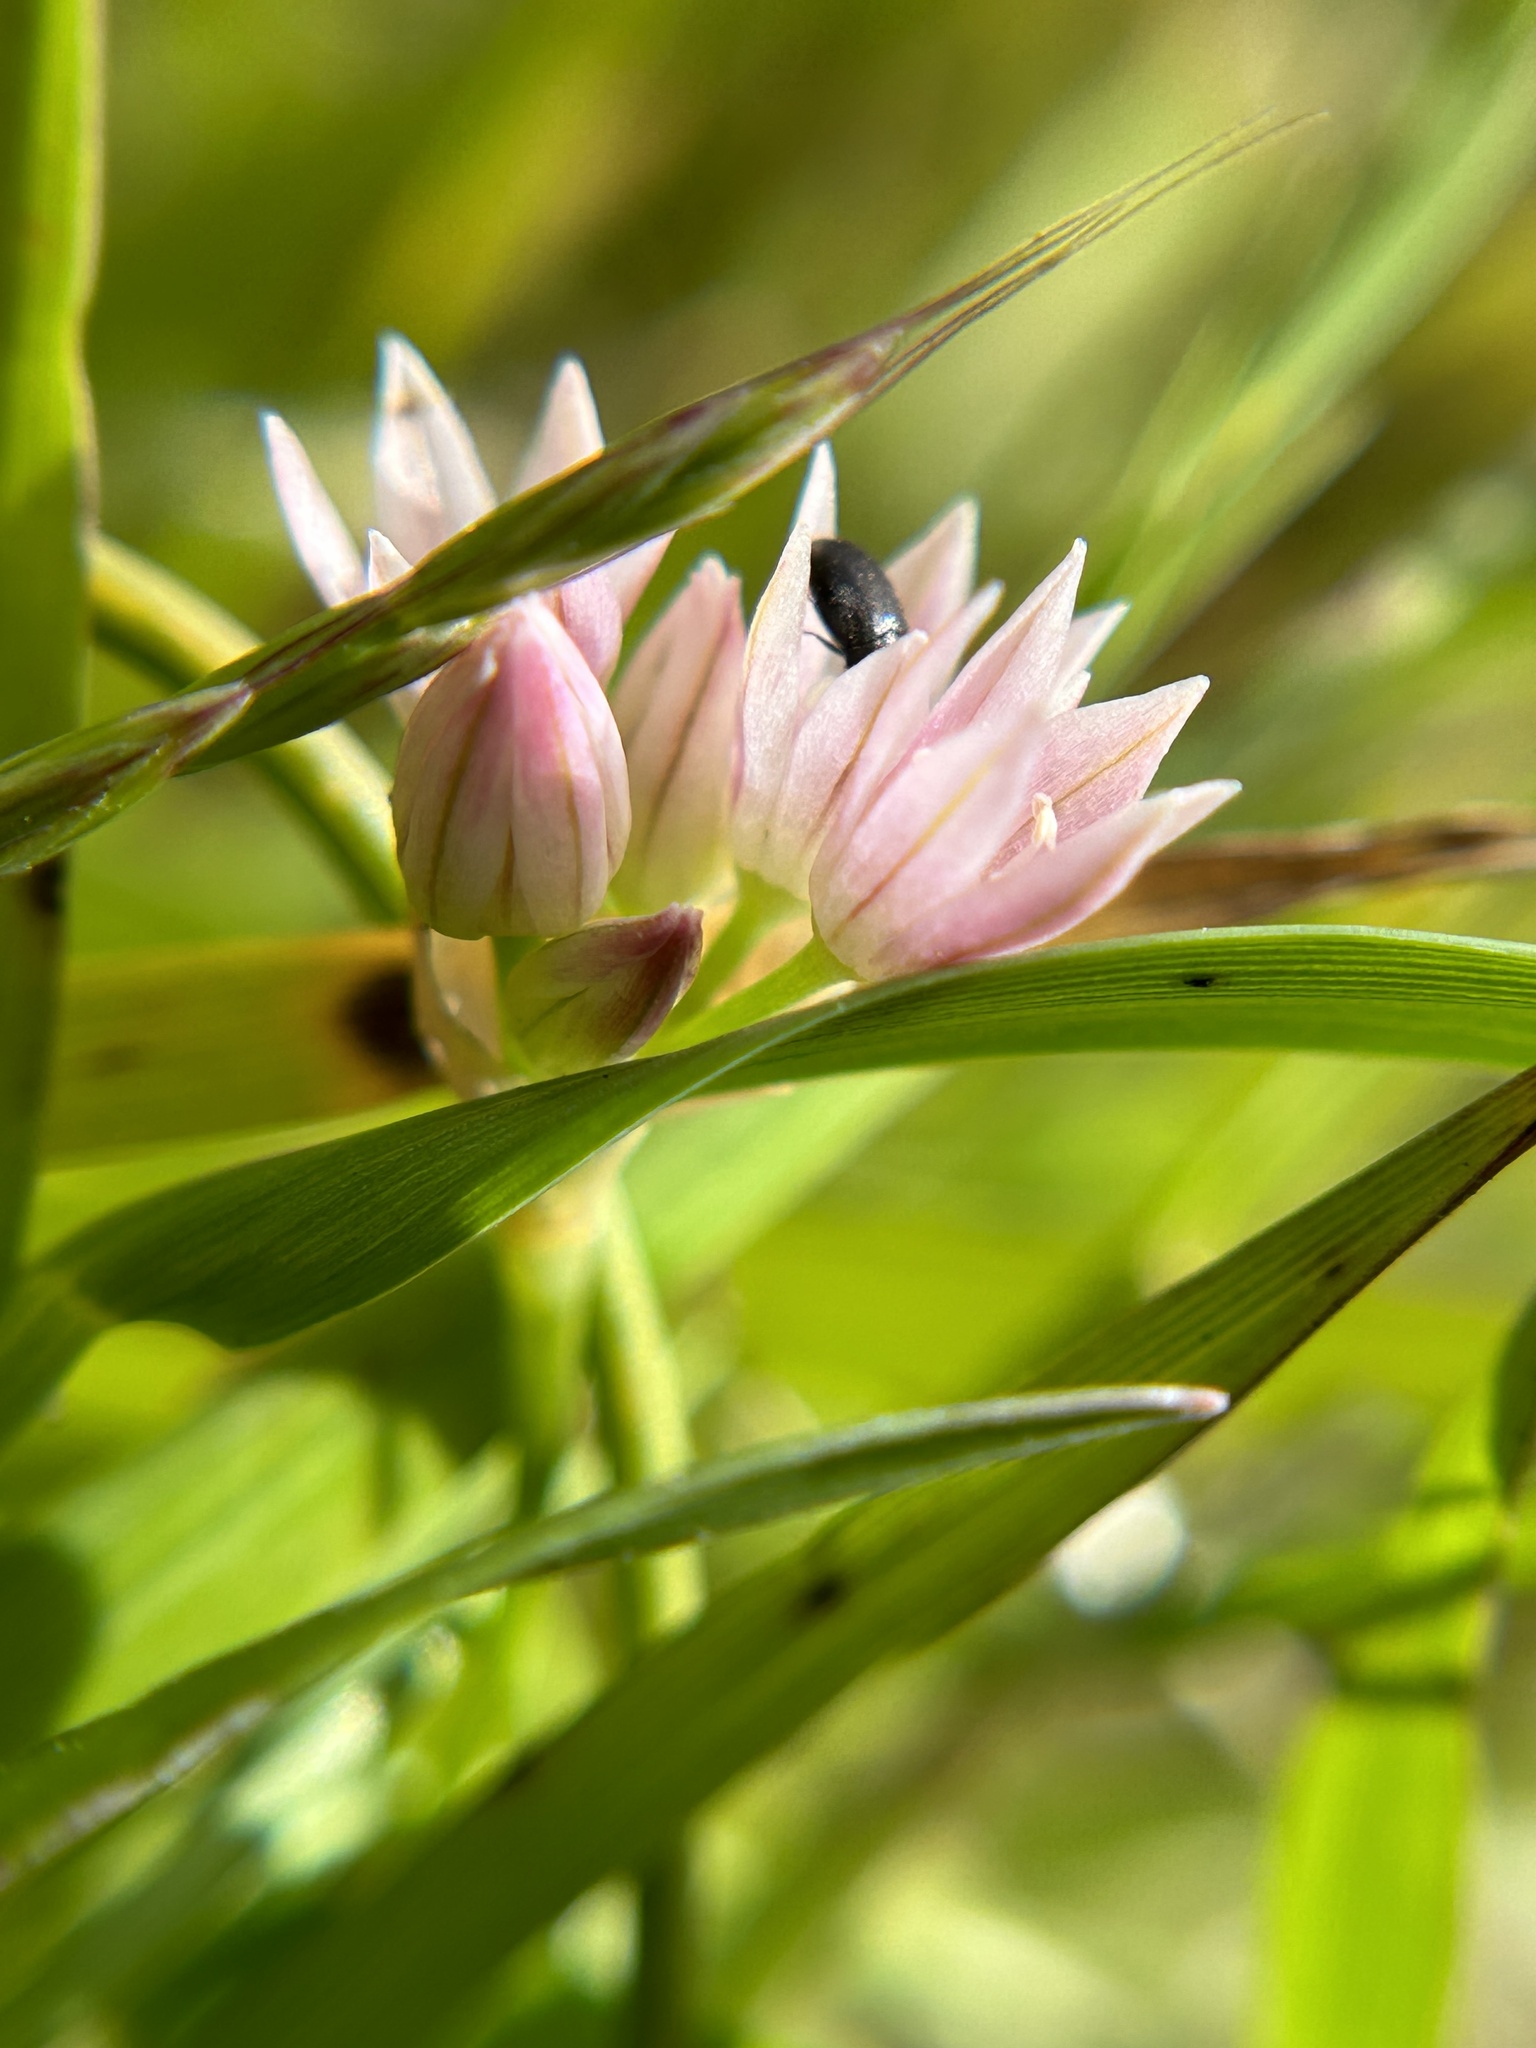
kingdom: Plantae
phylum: Tracheophyta
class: Liliopsida
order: Asparagales
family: Amaryllidaceae
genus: Allium
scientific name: Allium hickmanii
